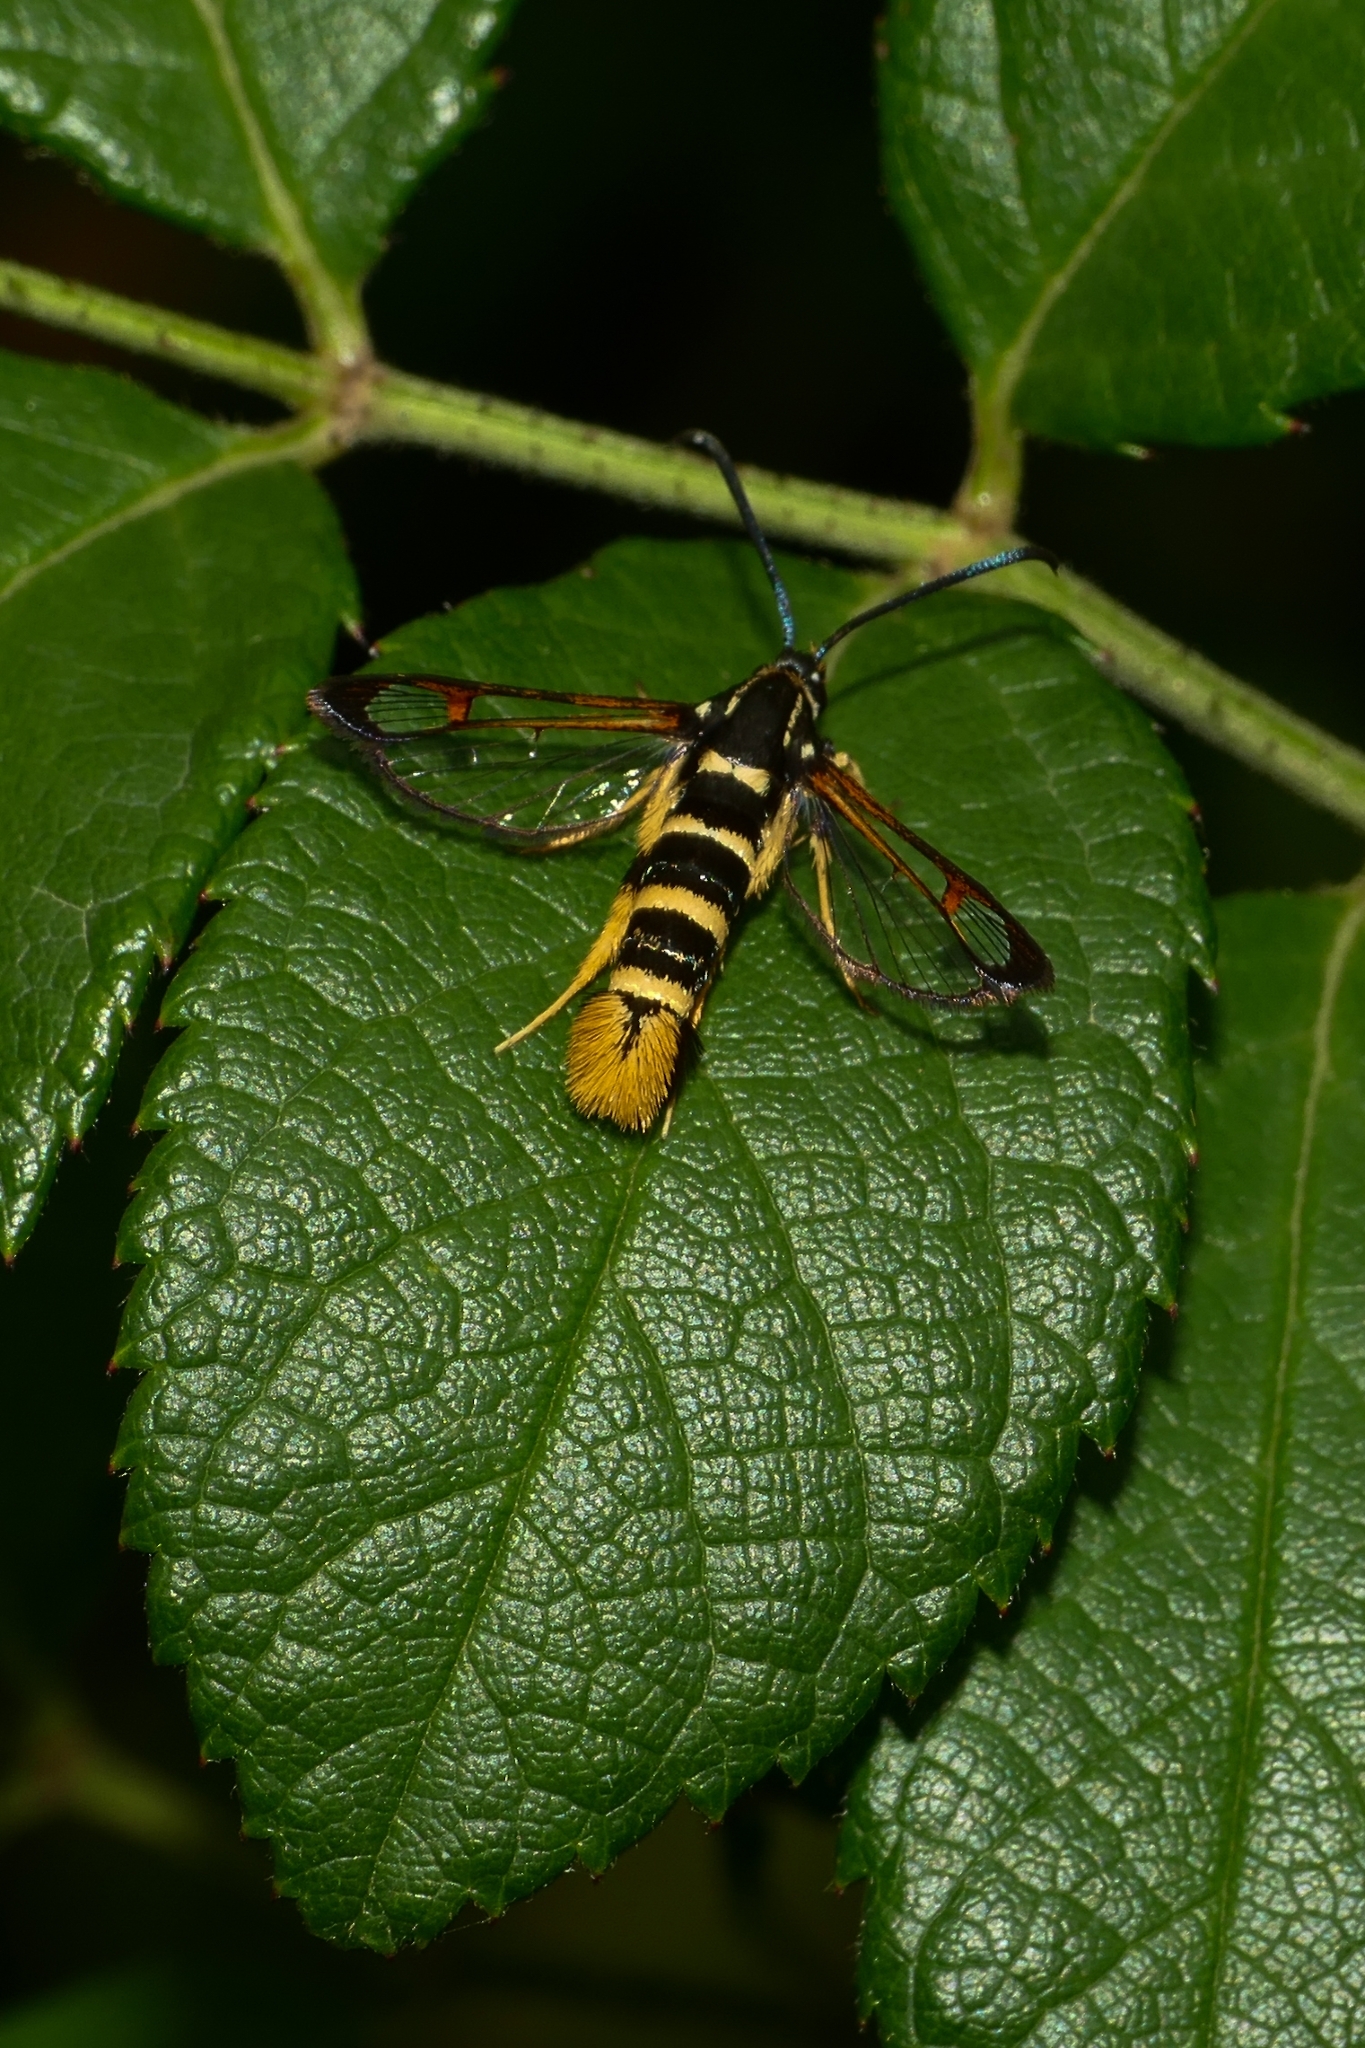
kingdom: Animalia
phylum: Arthropoda
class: Insecta
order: Lepidoptera
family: Sesiidae
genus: Synanthedon
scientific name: Synanthedon vespiformis
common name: Yellow-legged clearwing
